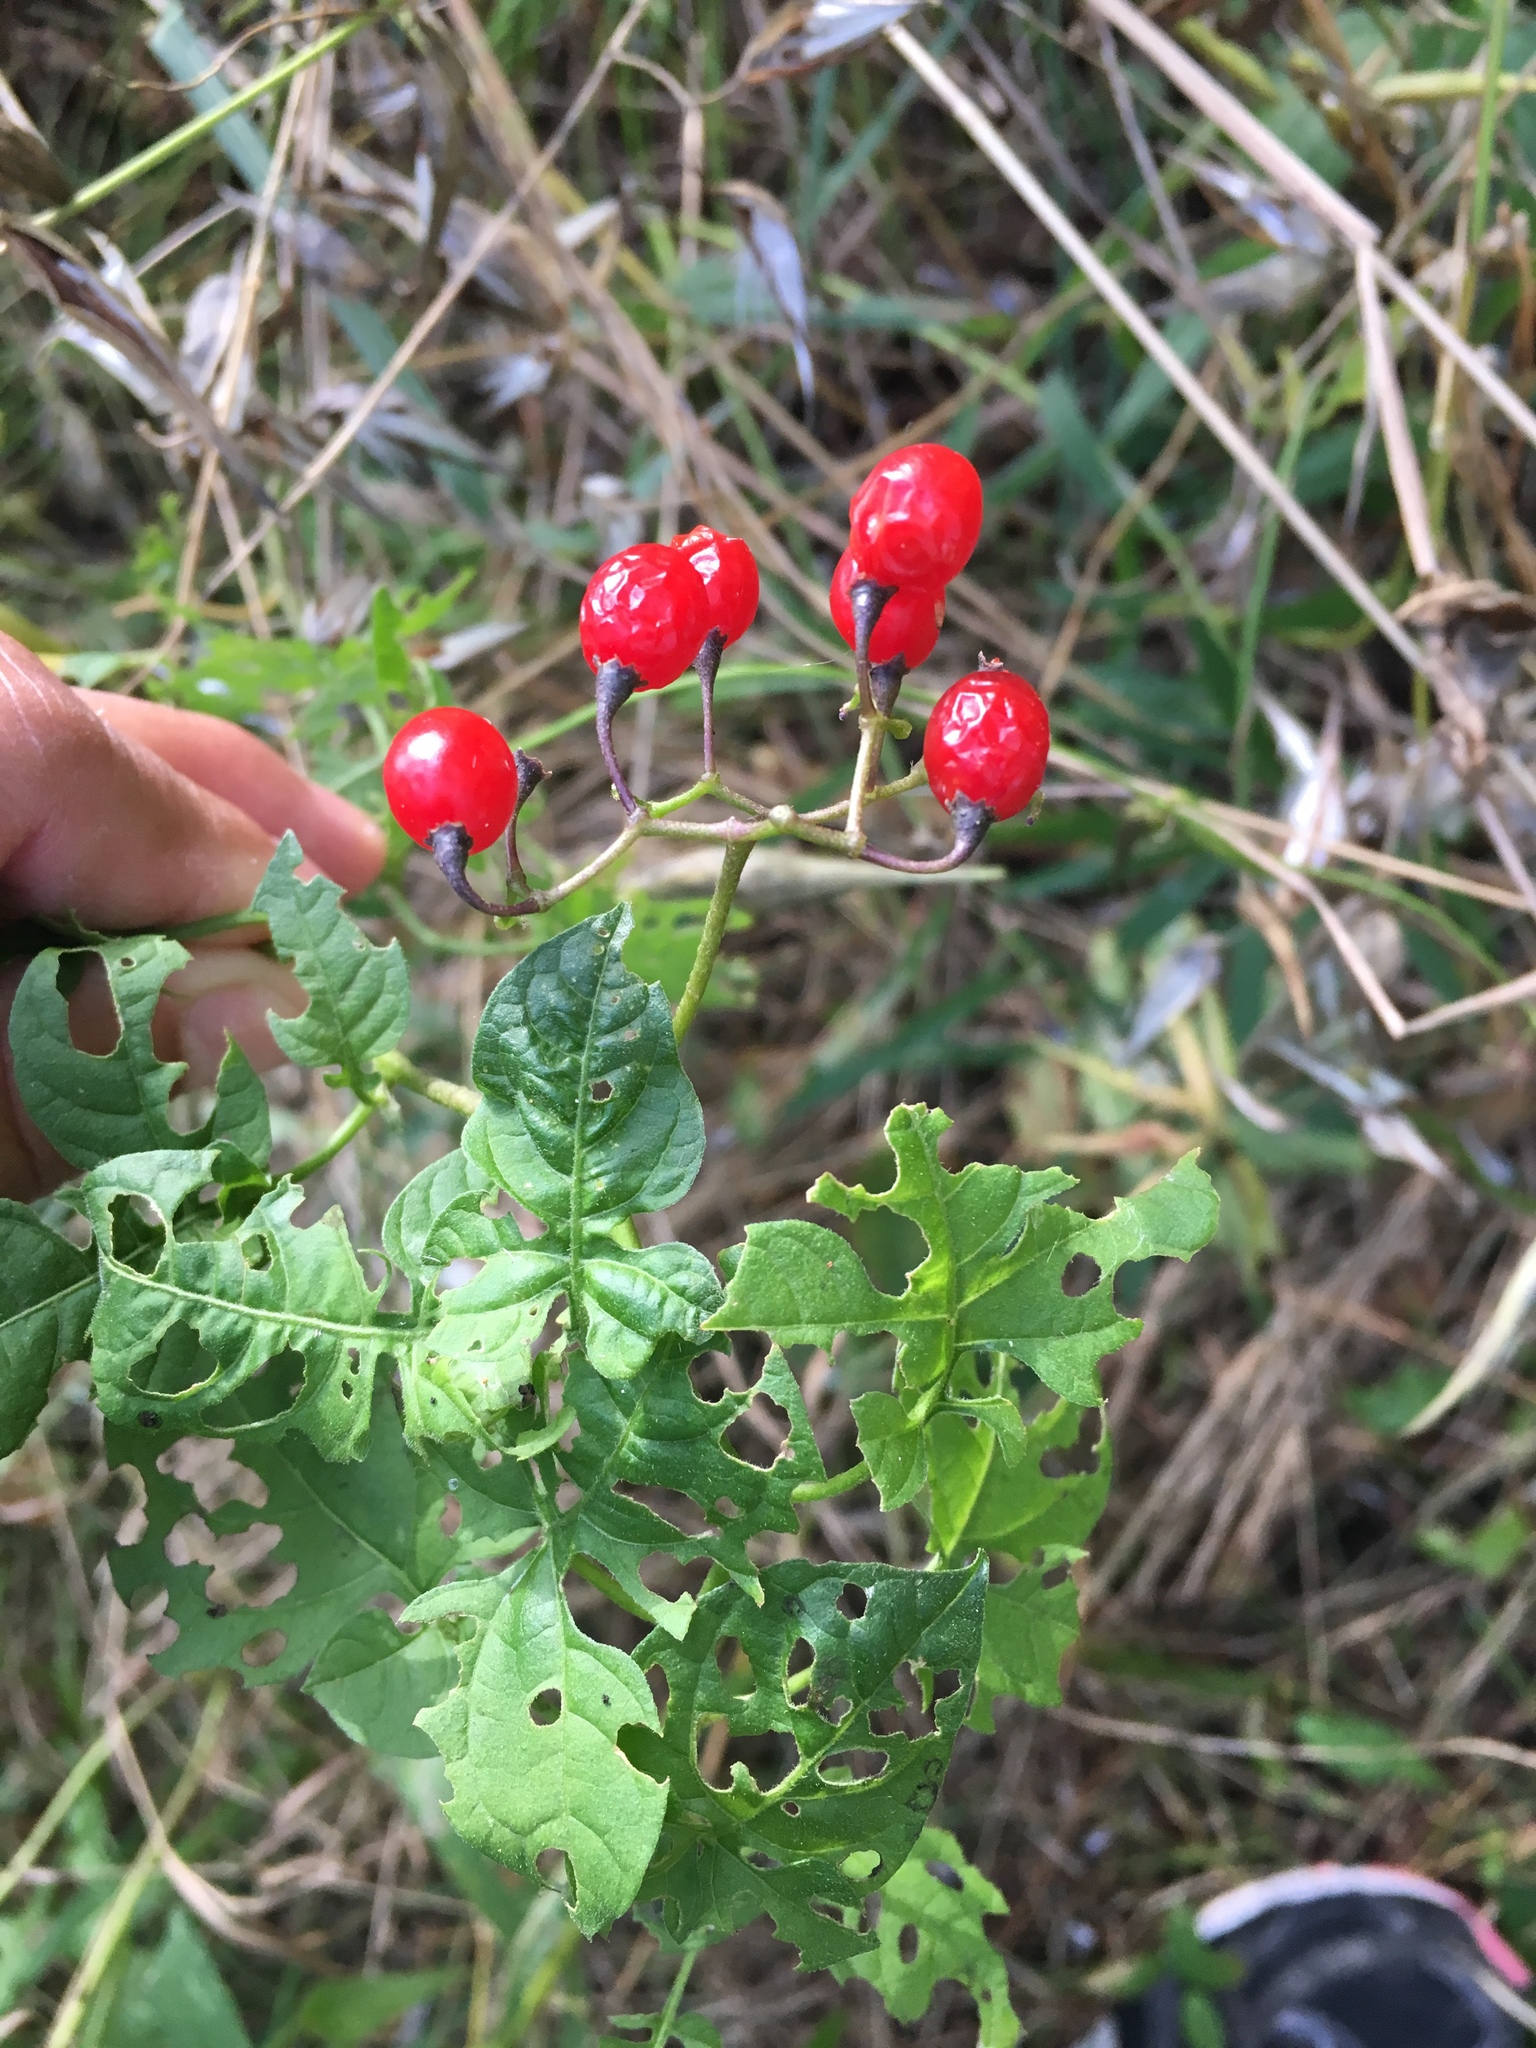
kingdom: Plantae
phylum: Tracheophyta
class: Magnoliopsida
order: Solanales
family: Solanaceae
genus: Solanum
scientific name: Solanum dulcamara
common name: Climbing nightshade
